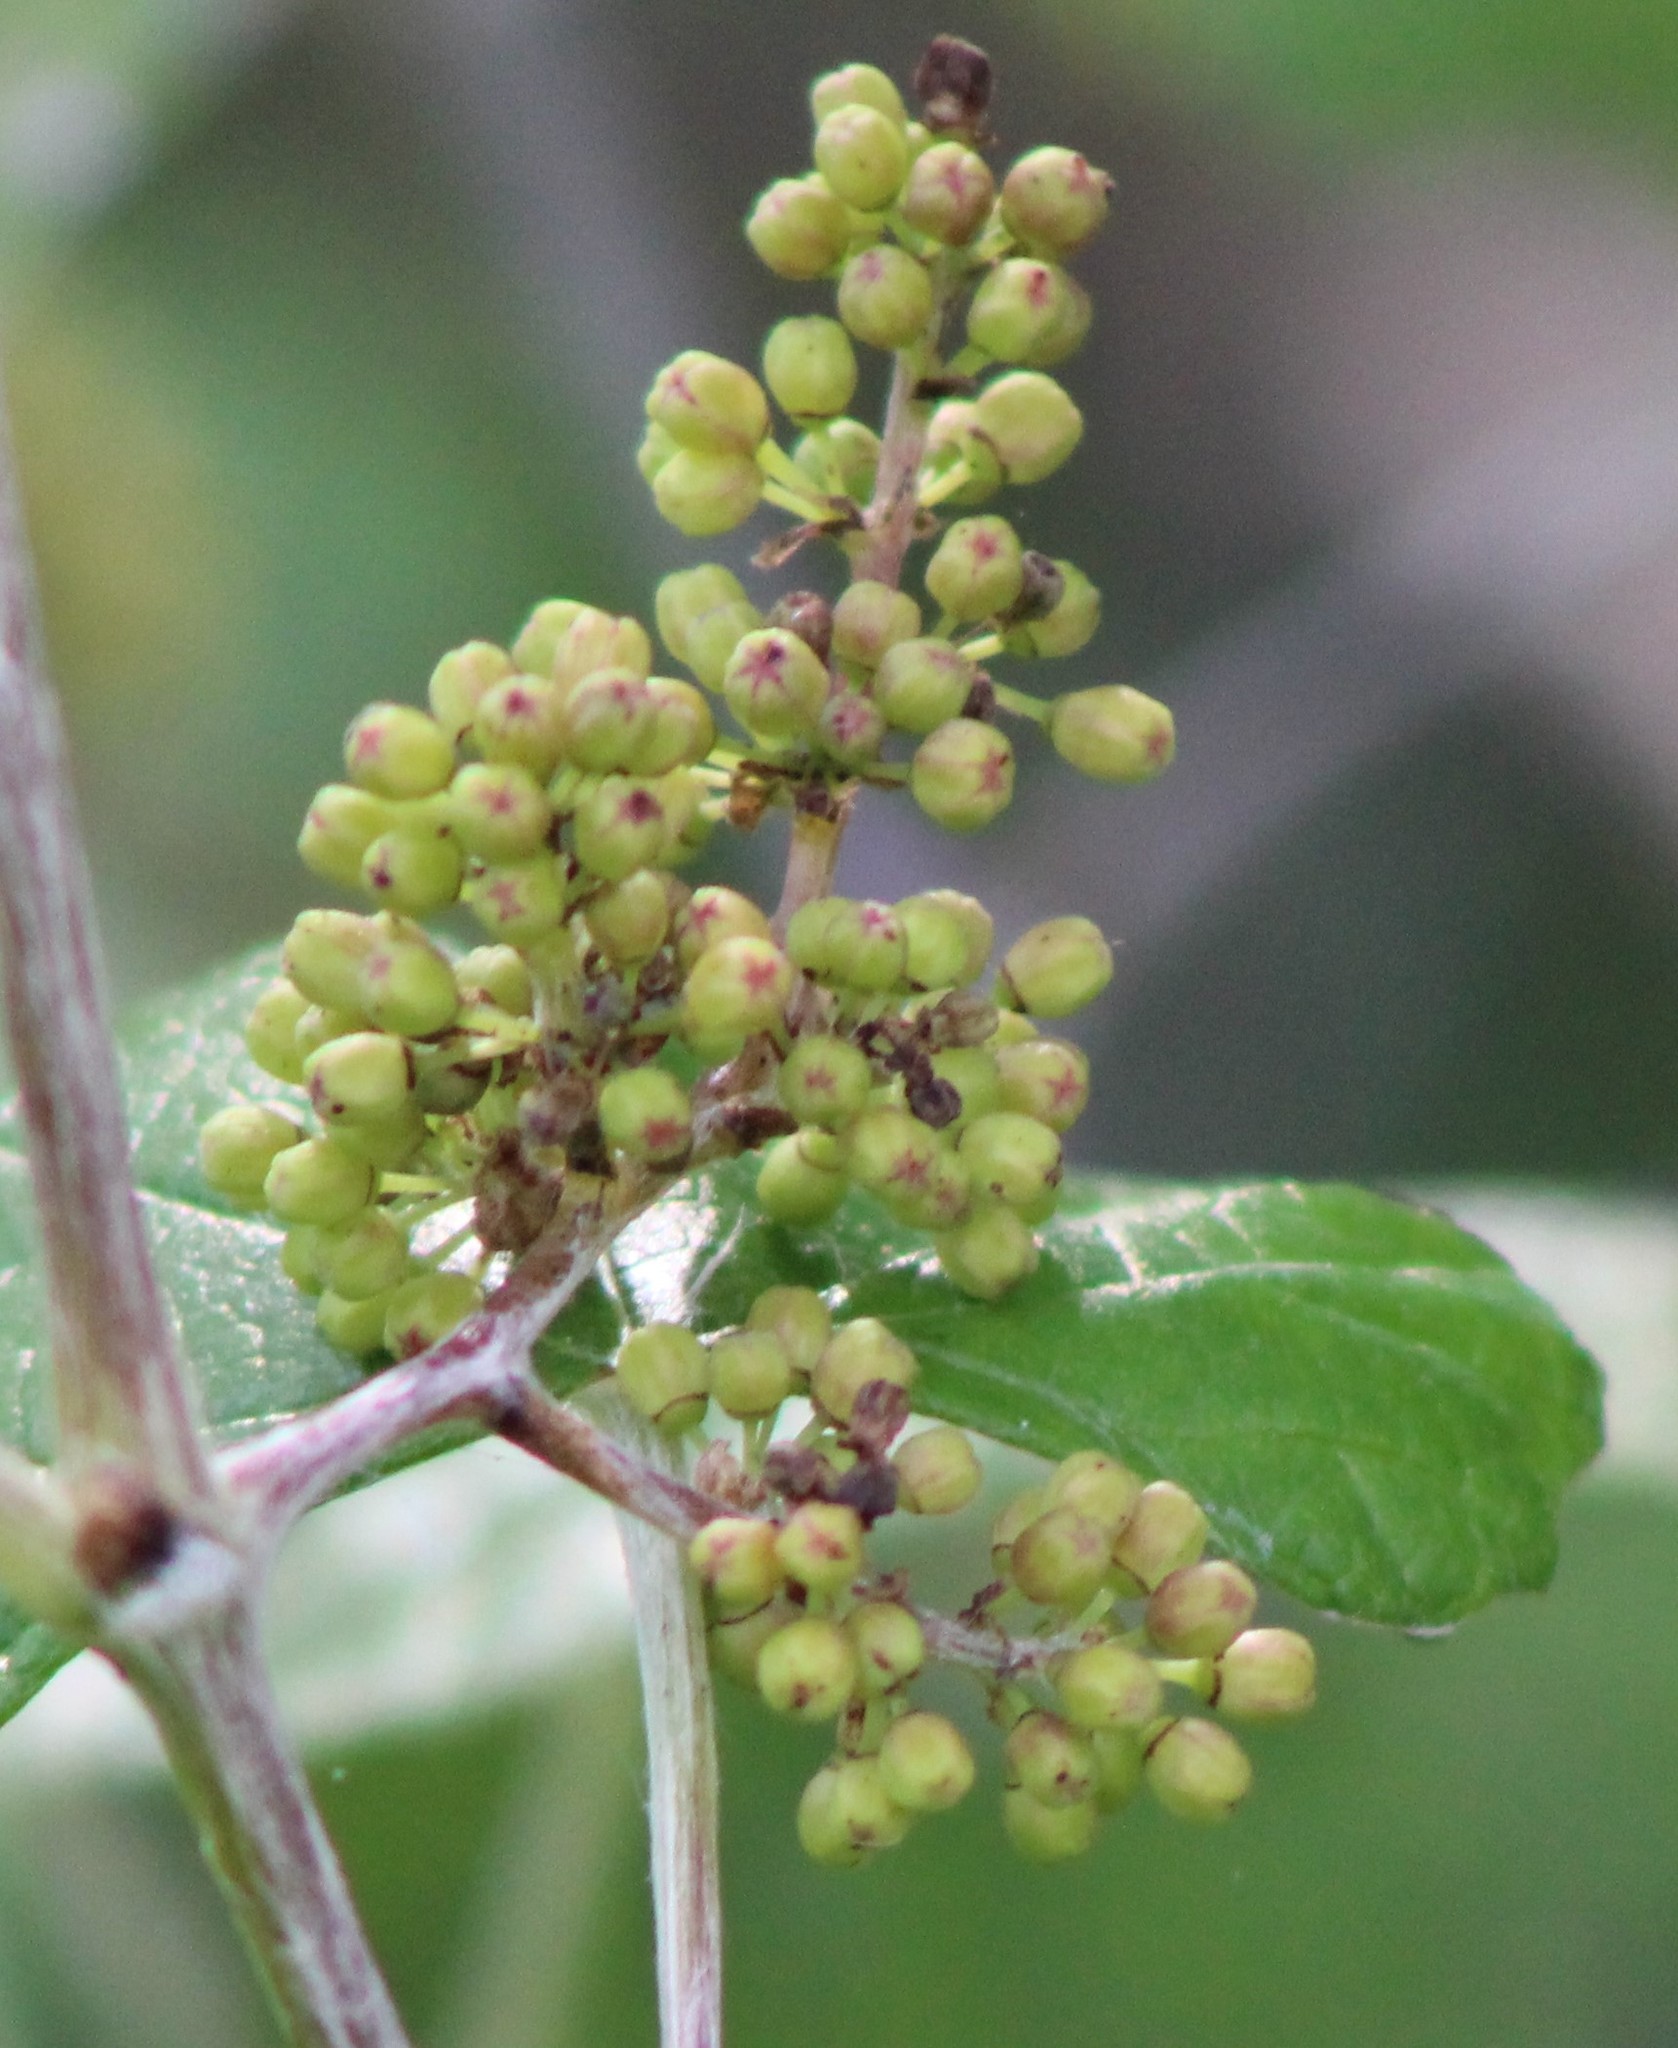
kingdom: Plantae
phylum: Tracheophyta
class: Magnoliopsida
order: Vitales
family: Vitaceae
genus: Vitis
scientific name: Vitis mustangensis
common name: Mustang grape
